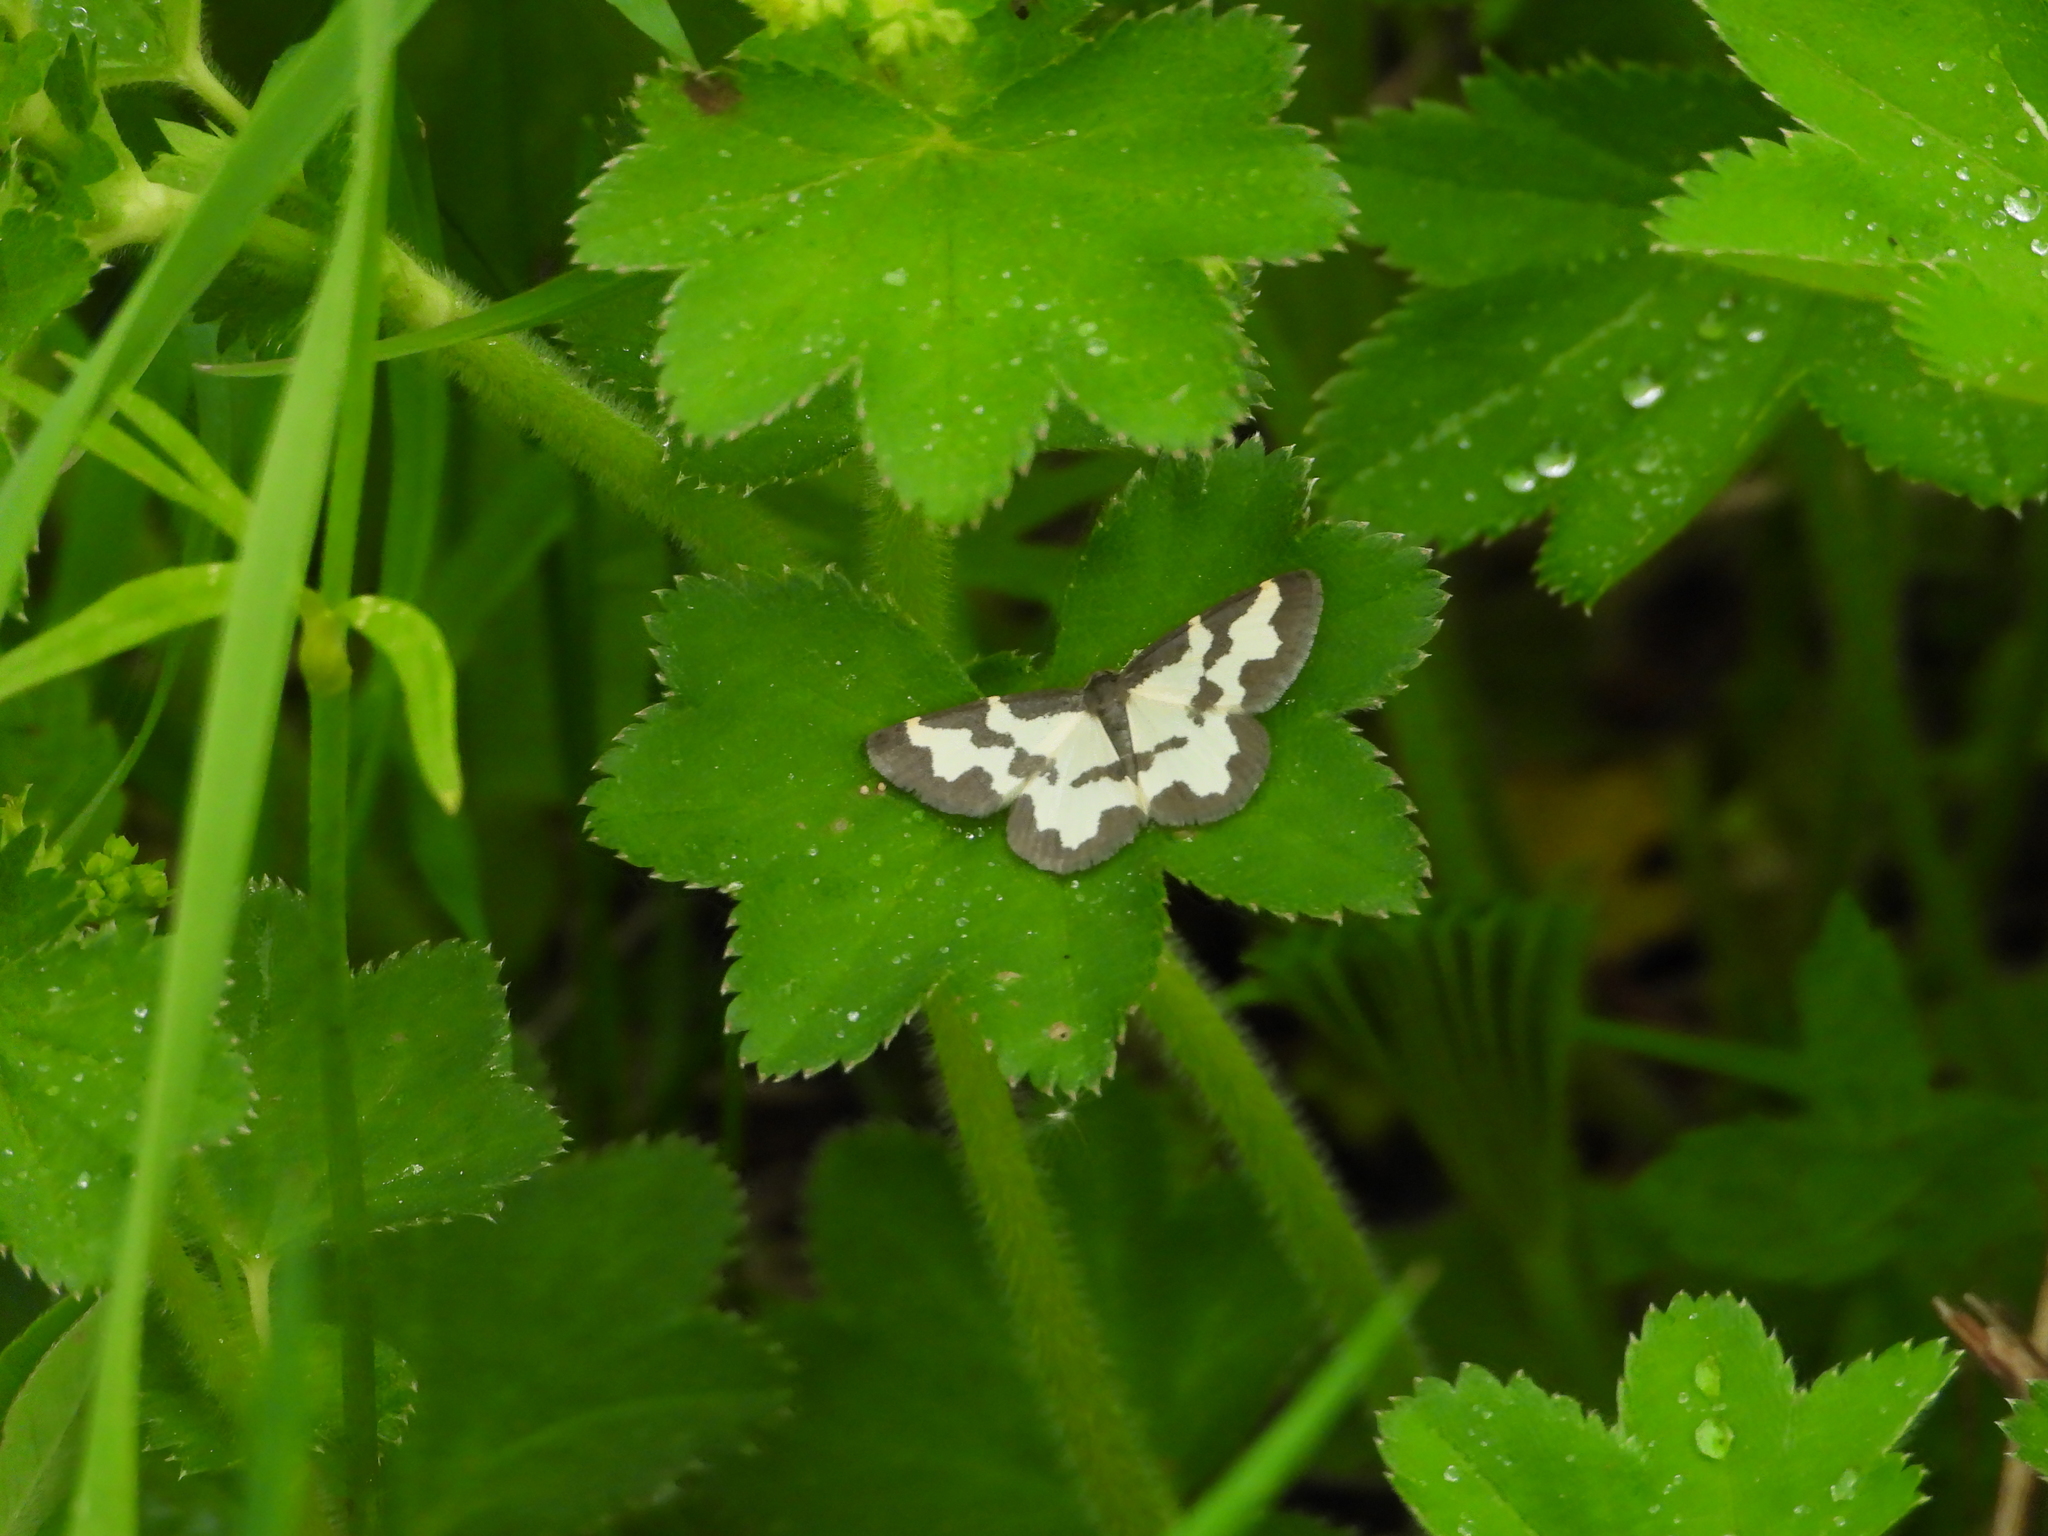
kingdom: Animalia
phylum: Arthropoda
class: Insecta
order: Lepidoptera
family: Geometridae
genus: Lomaspilis
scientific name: Lomaspilis marginata
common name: Clouded border
